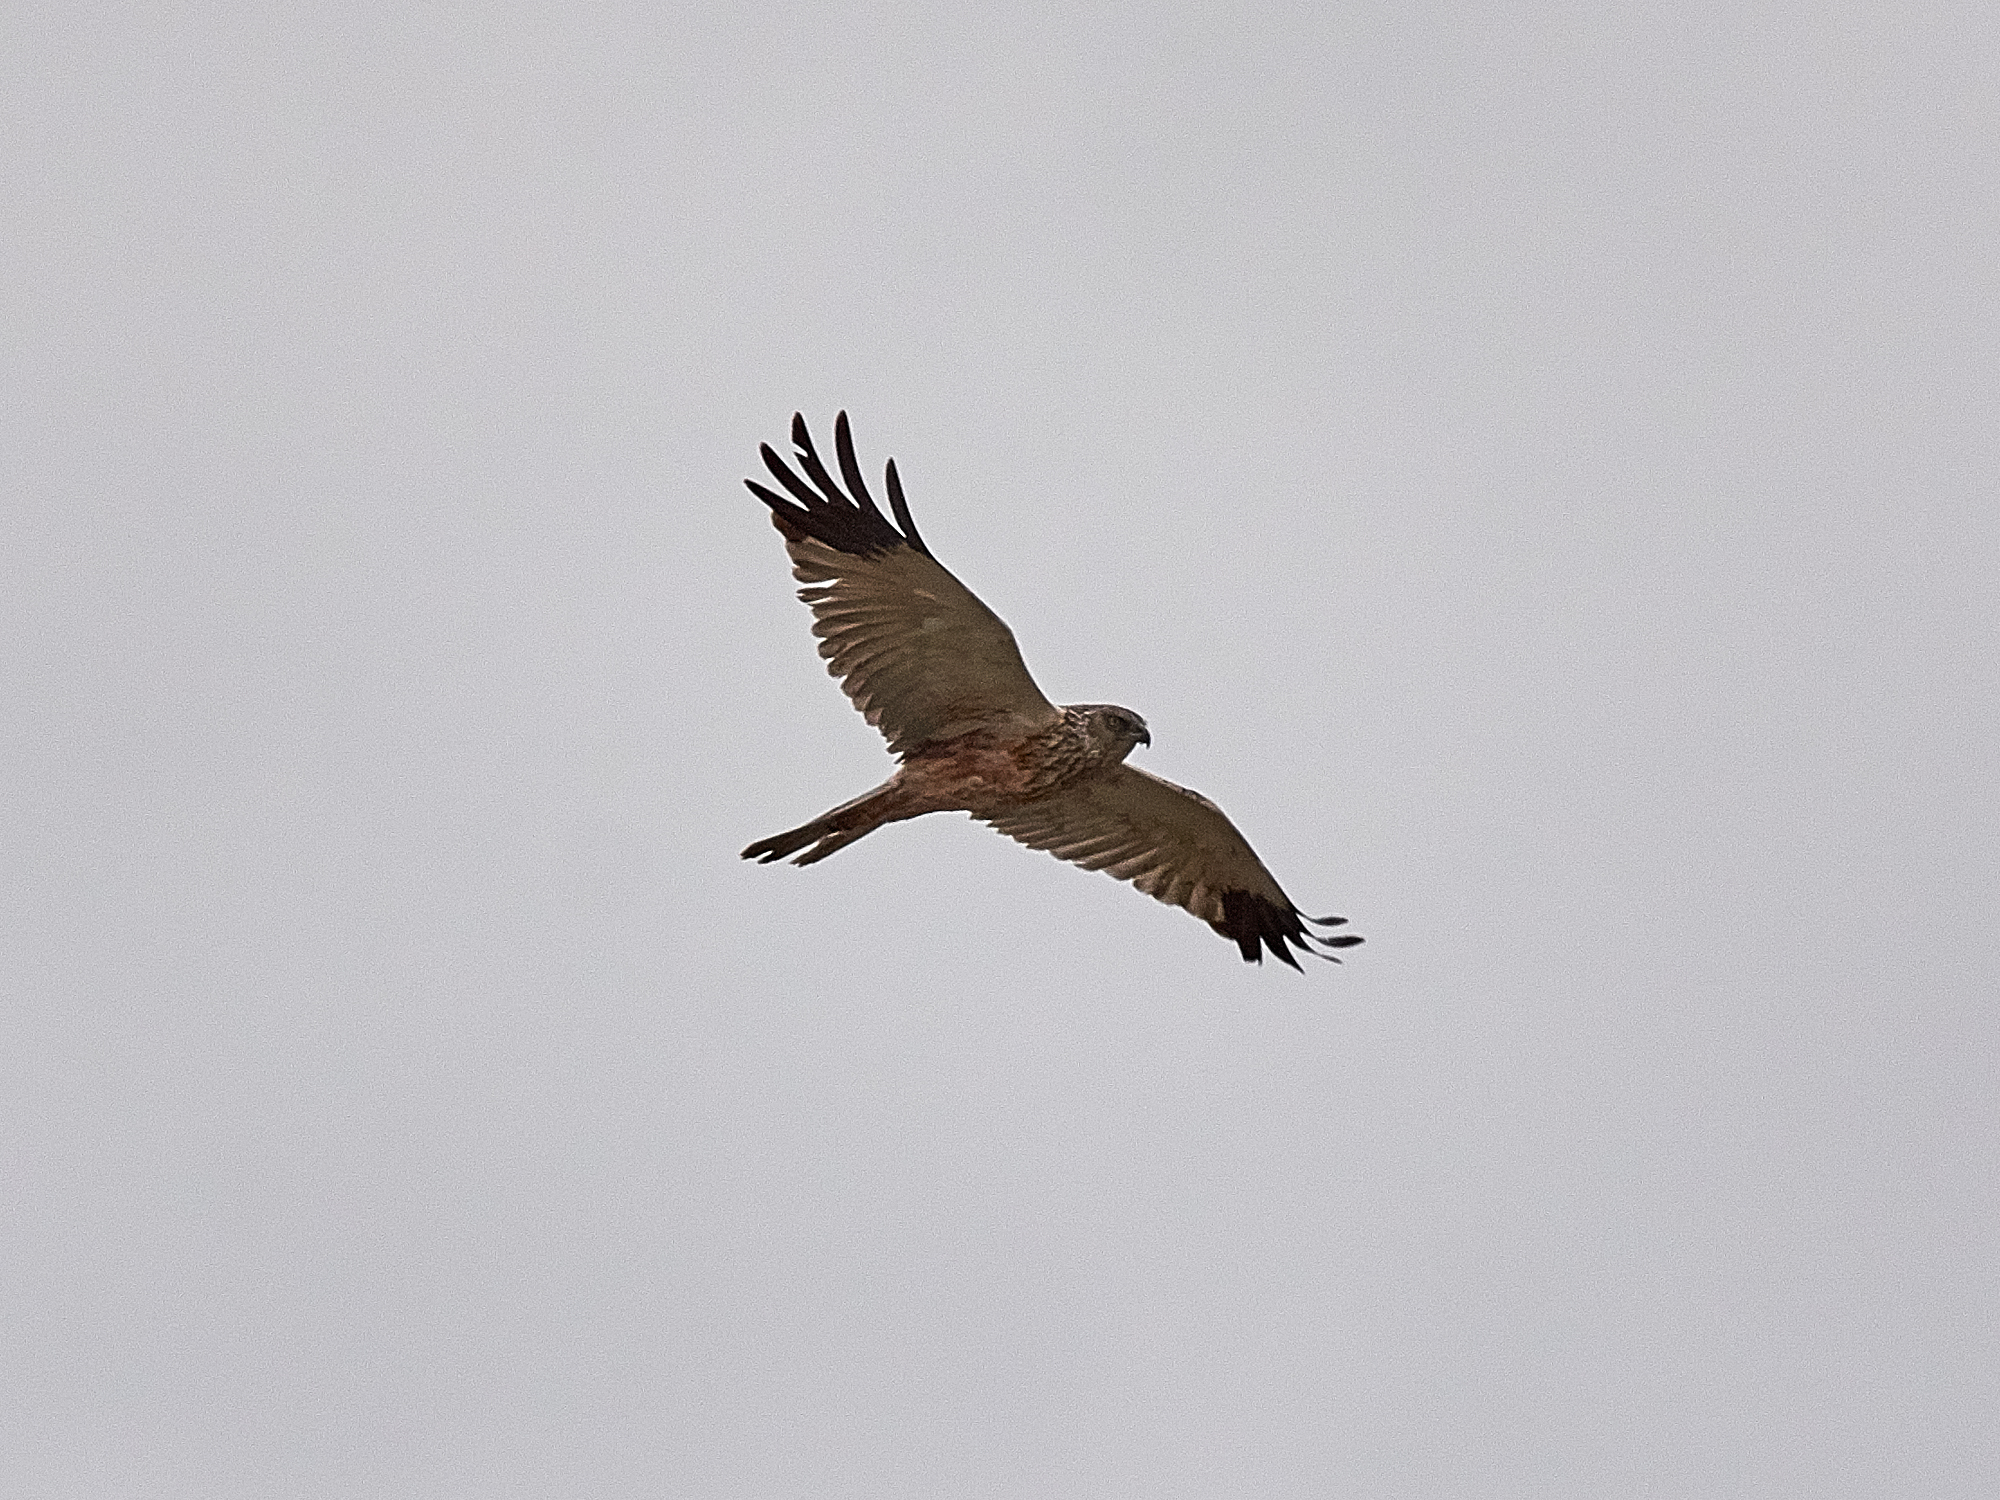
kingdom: Animalia
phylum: Chordata
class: Aves
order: Accipitriformes
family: Accipitridae
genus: Circus
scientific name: Circus aeruginosus
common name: Western marsh harrier
